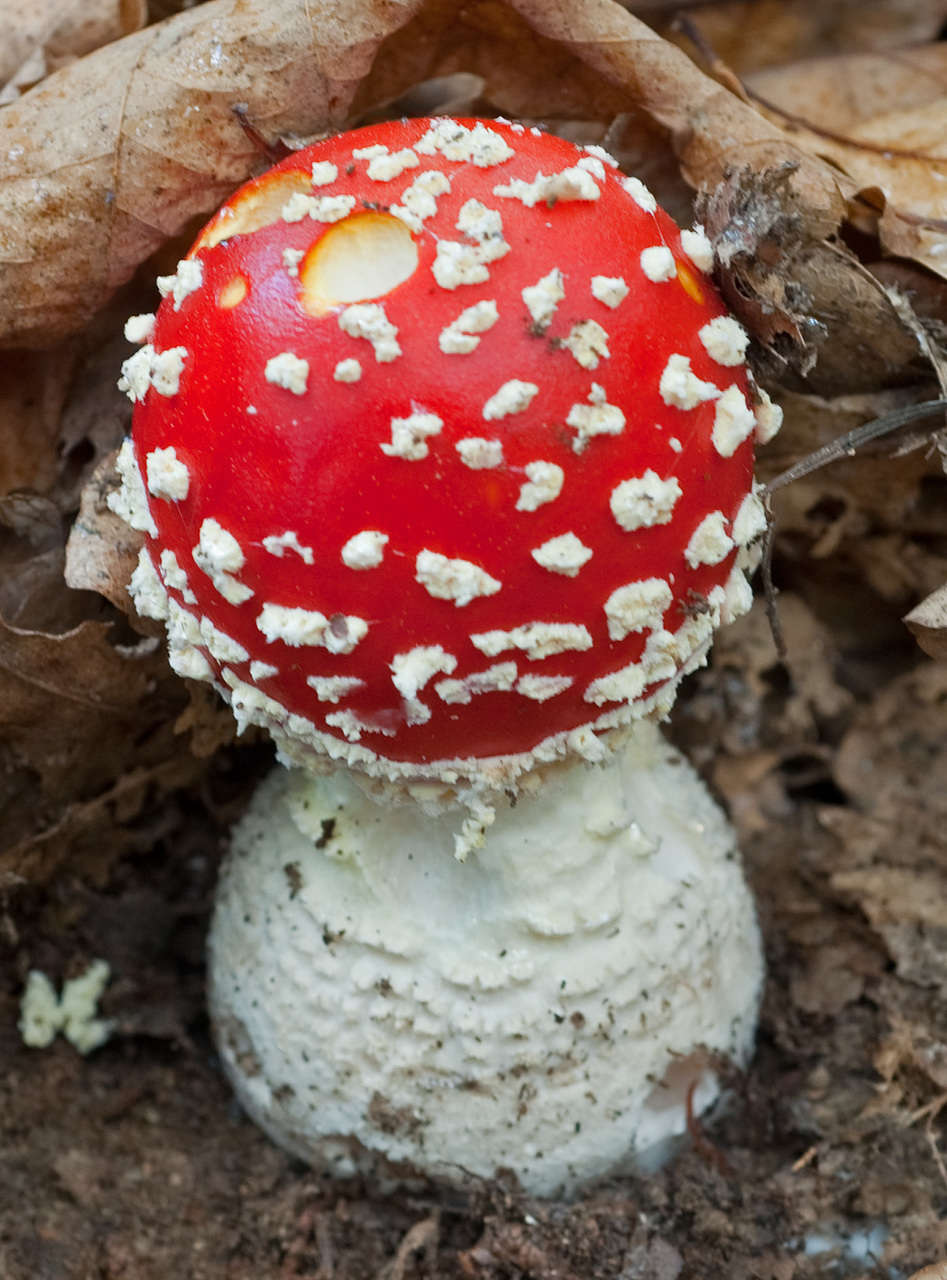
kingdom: Fungi
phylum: Basidiomycota
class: Agaricomycetes
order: Agaricales
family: Amanitaceae
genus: Amanita
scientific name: Amanita muscaria
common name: Fly agaric
